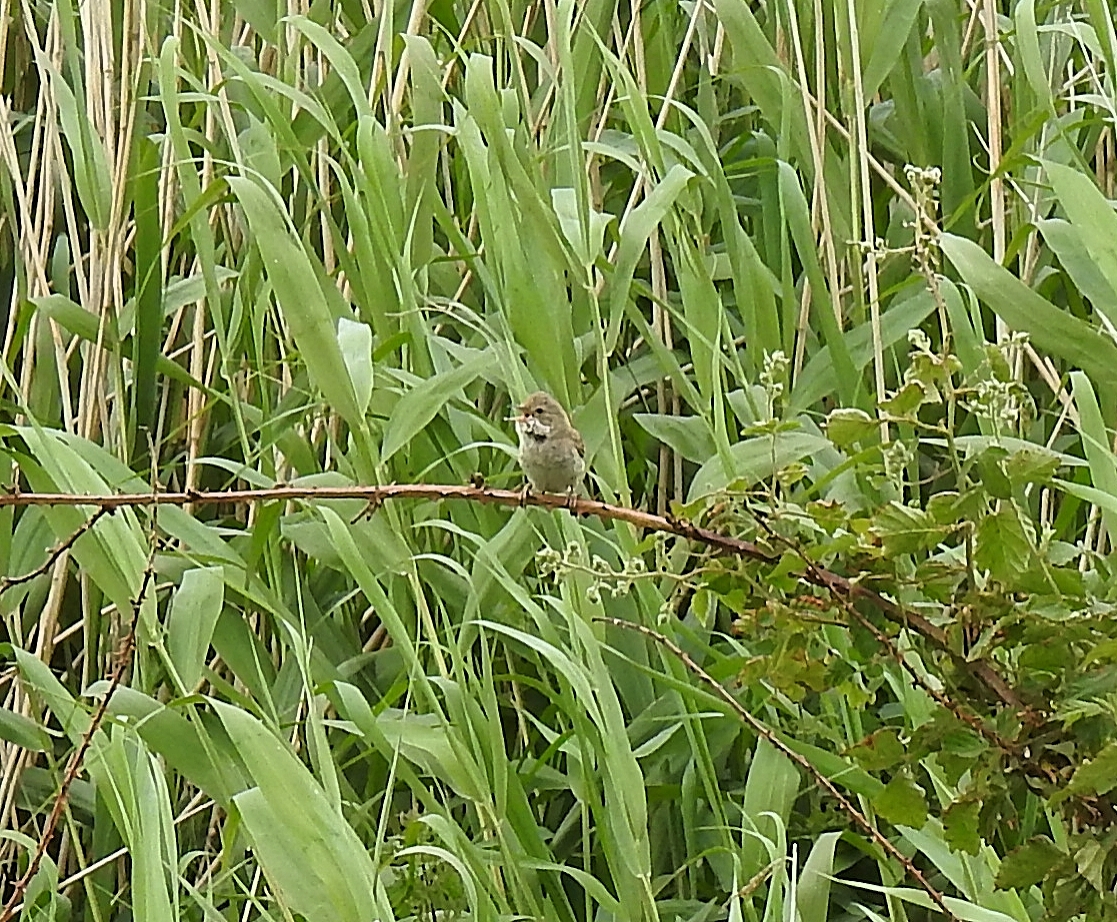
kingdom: Animalia
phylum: Chordata
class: Aves
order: Passeriformes
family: Acrocephalidae
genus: Acrocephalus
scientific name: Acrocephalus scirpaceus
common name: Eurasian reed warbler
